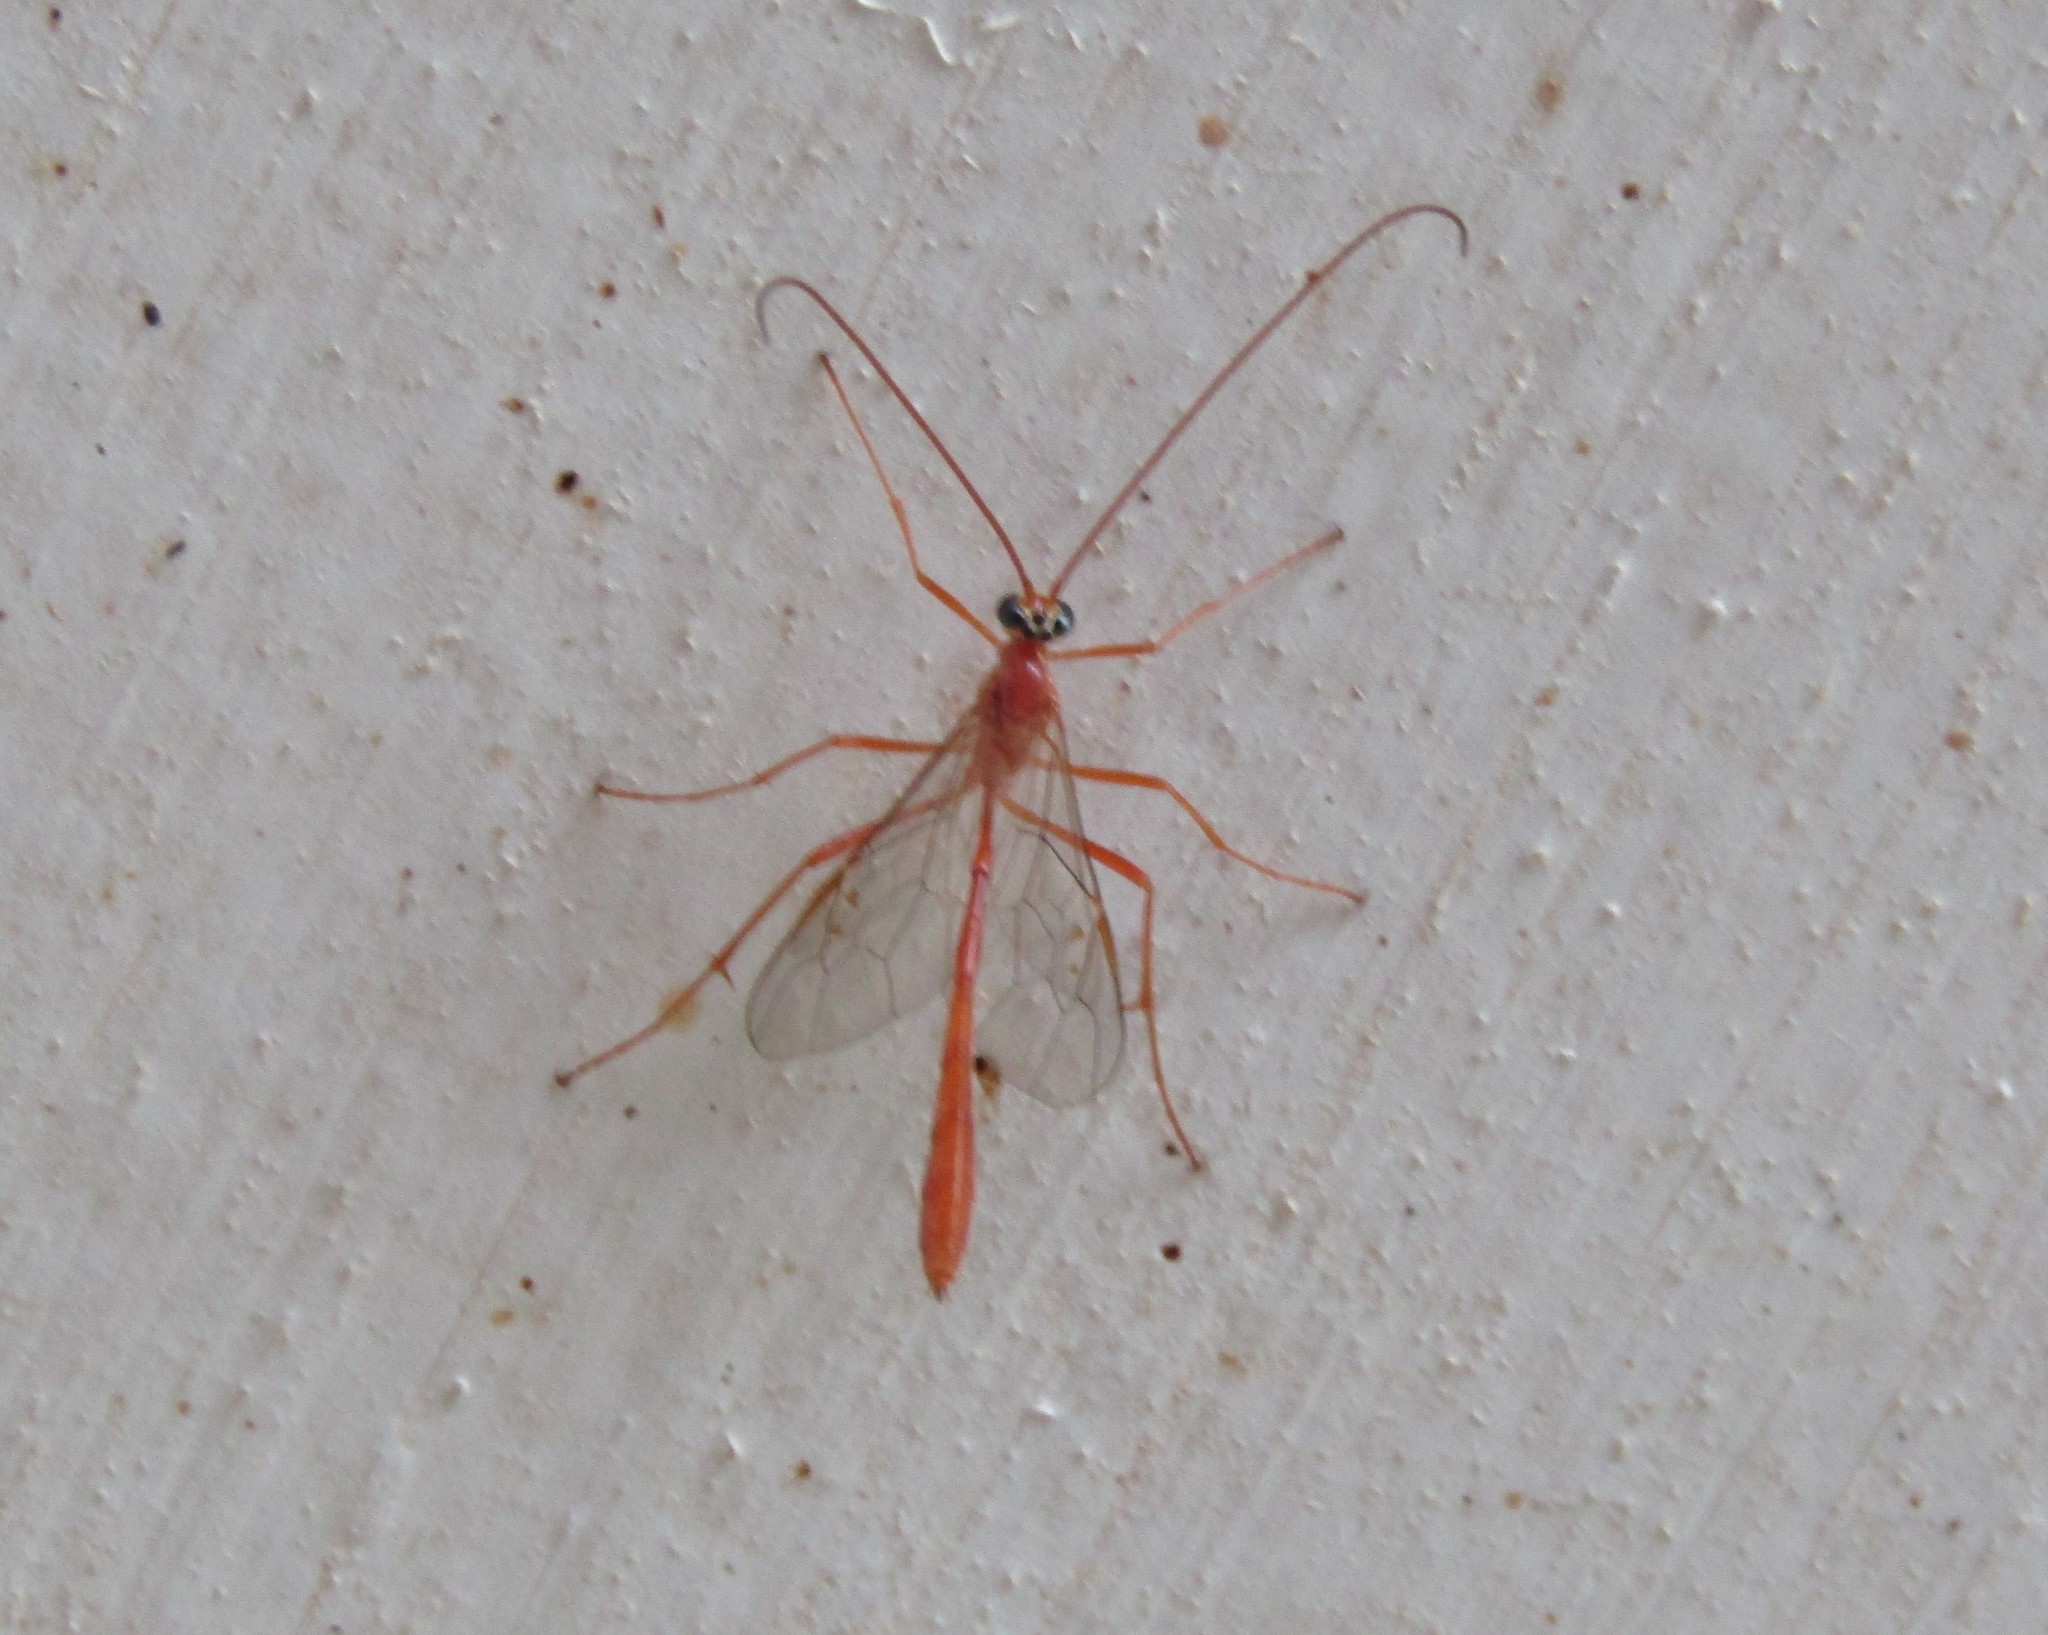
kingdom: Animalia
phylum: Arthropoda
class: Insecta
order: Hymenoptera
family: Ichneumonidae
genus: Enicospilus
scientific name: Enicospilus purgatus
